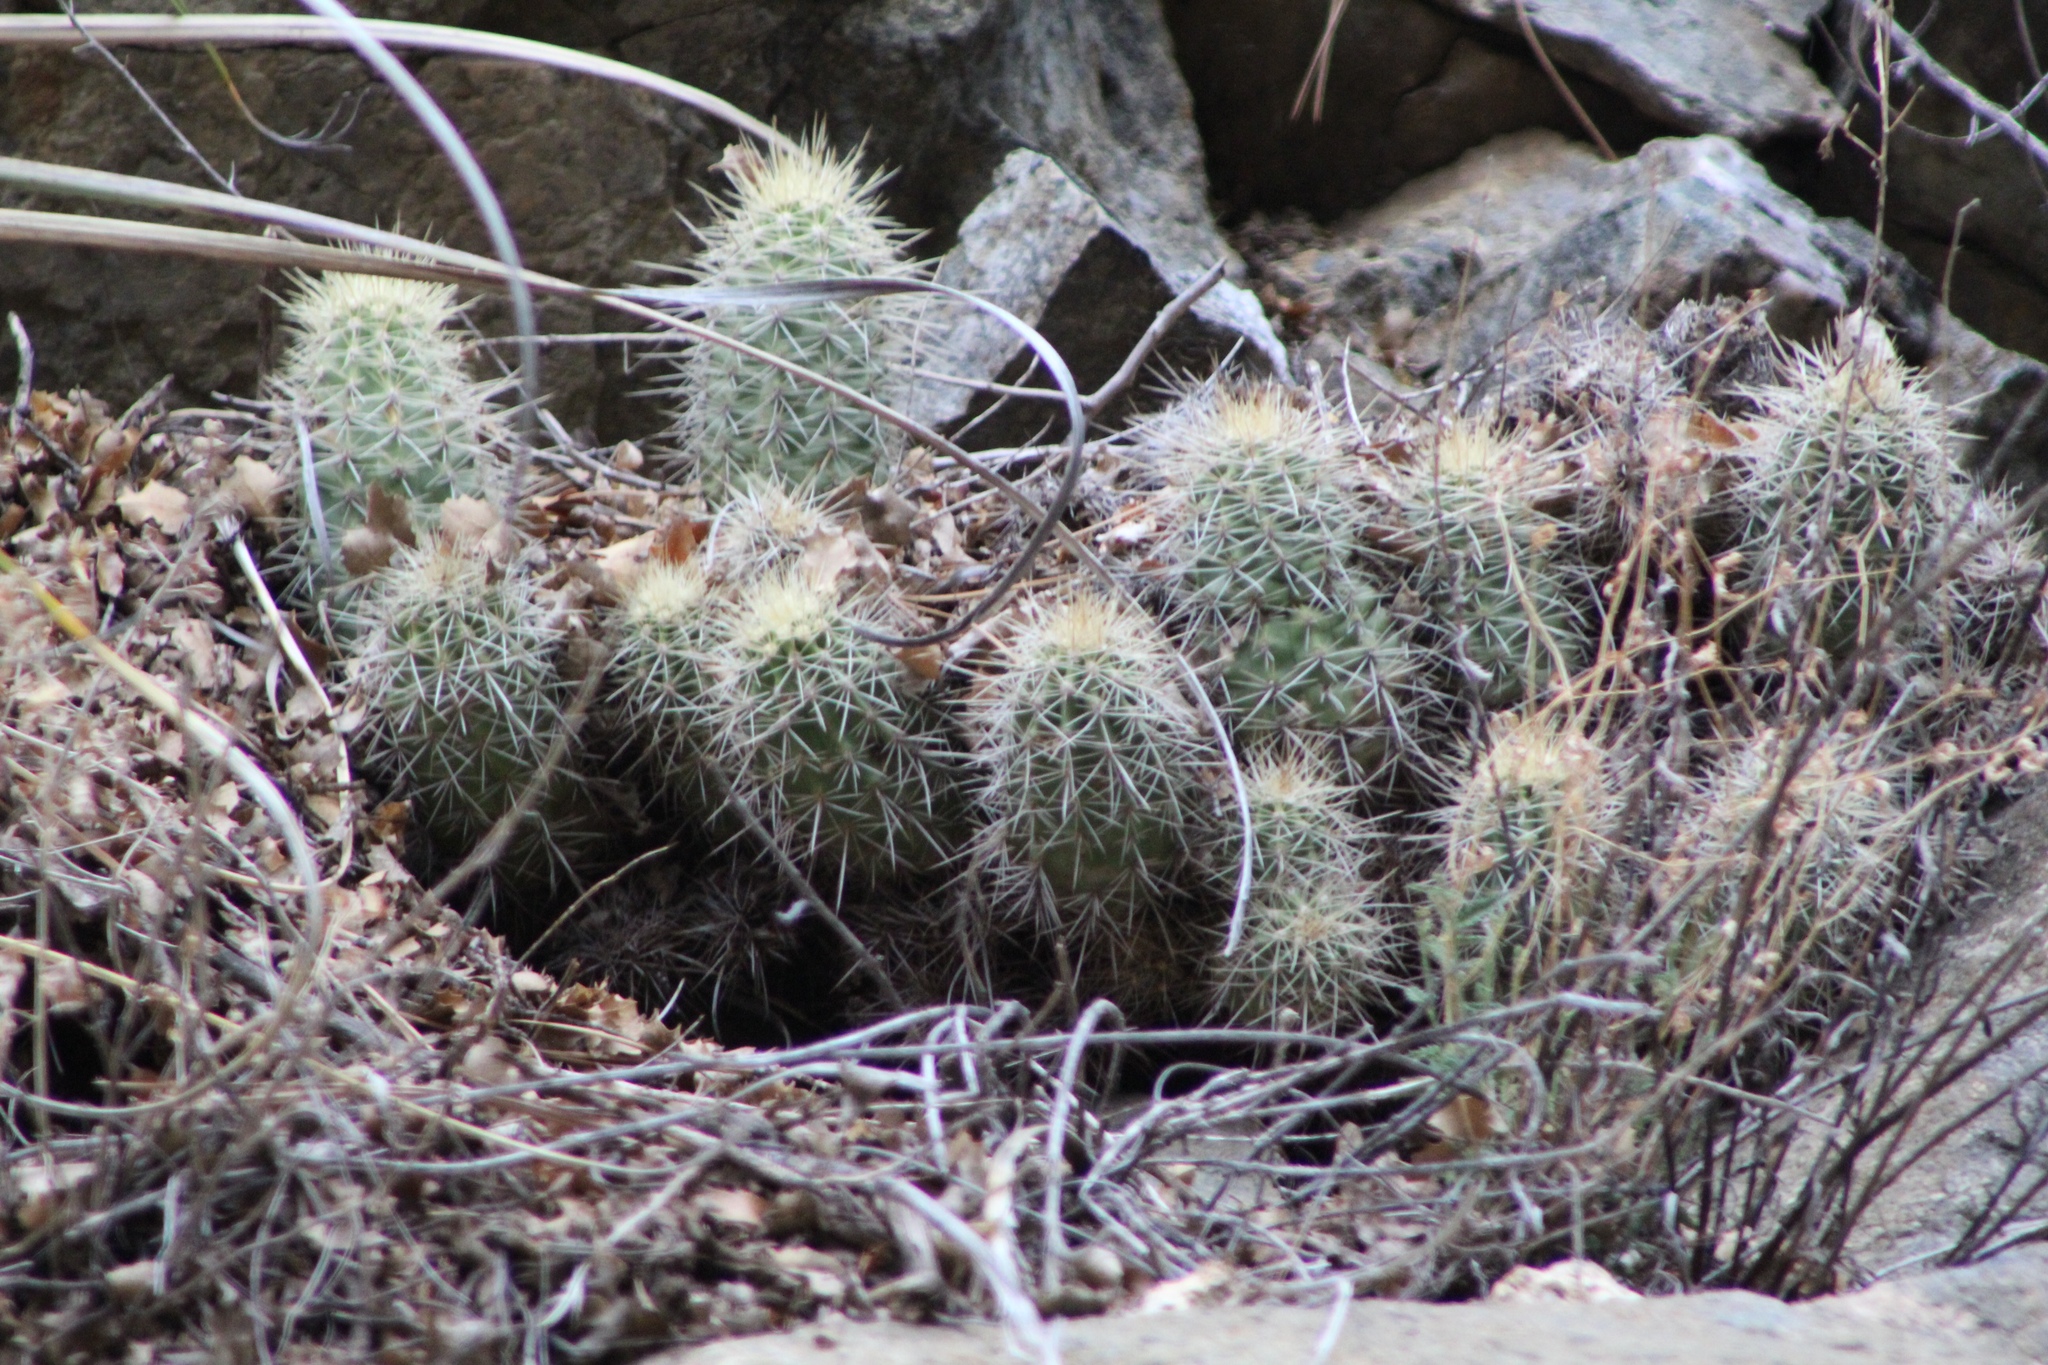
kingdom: Plantae
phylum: Tracheophyta
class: Magnoliopsida
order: Caryophyllales
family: Cactaceae
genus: Echinocereus
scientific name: Echinocereus bakeri
